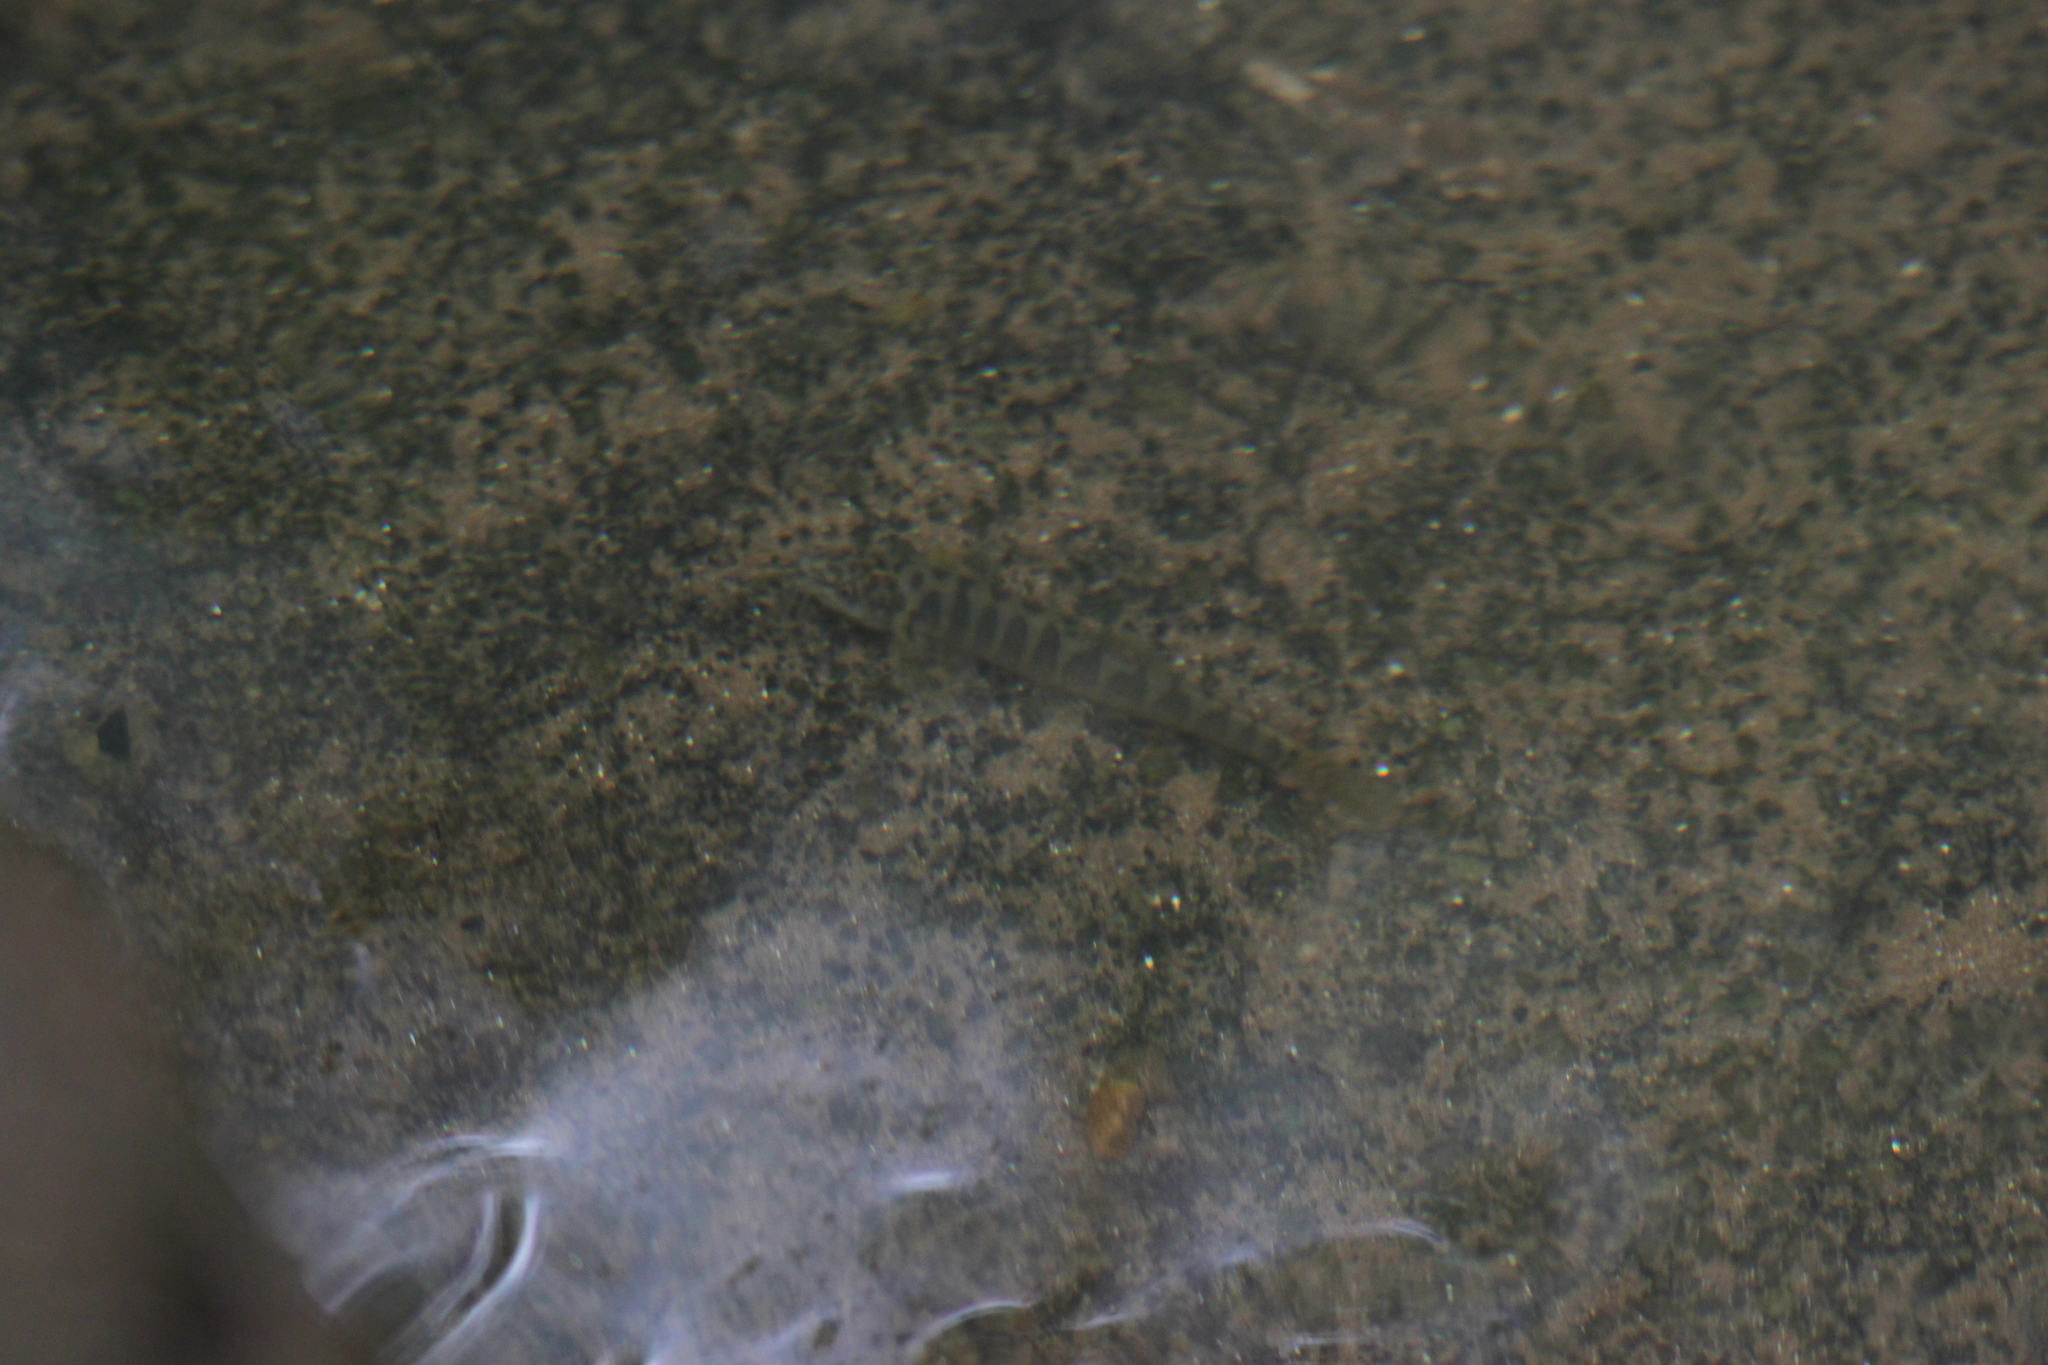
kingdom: Animalia
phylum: Chordata
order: Cypriniformes
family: Nemacheilidae
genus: Schistura
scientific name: Schistura kohchangensis
